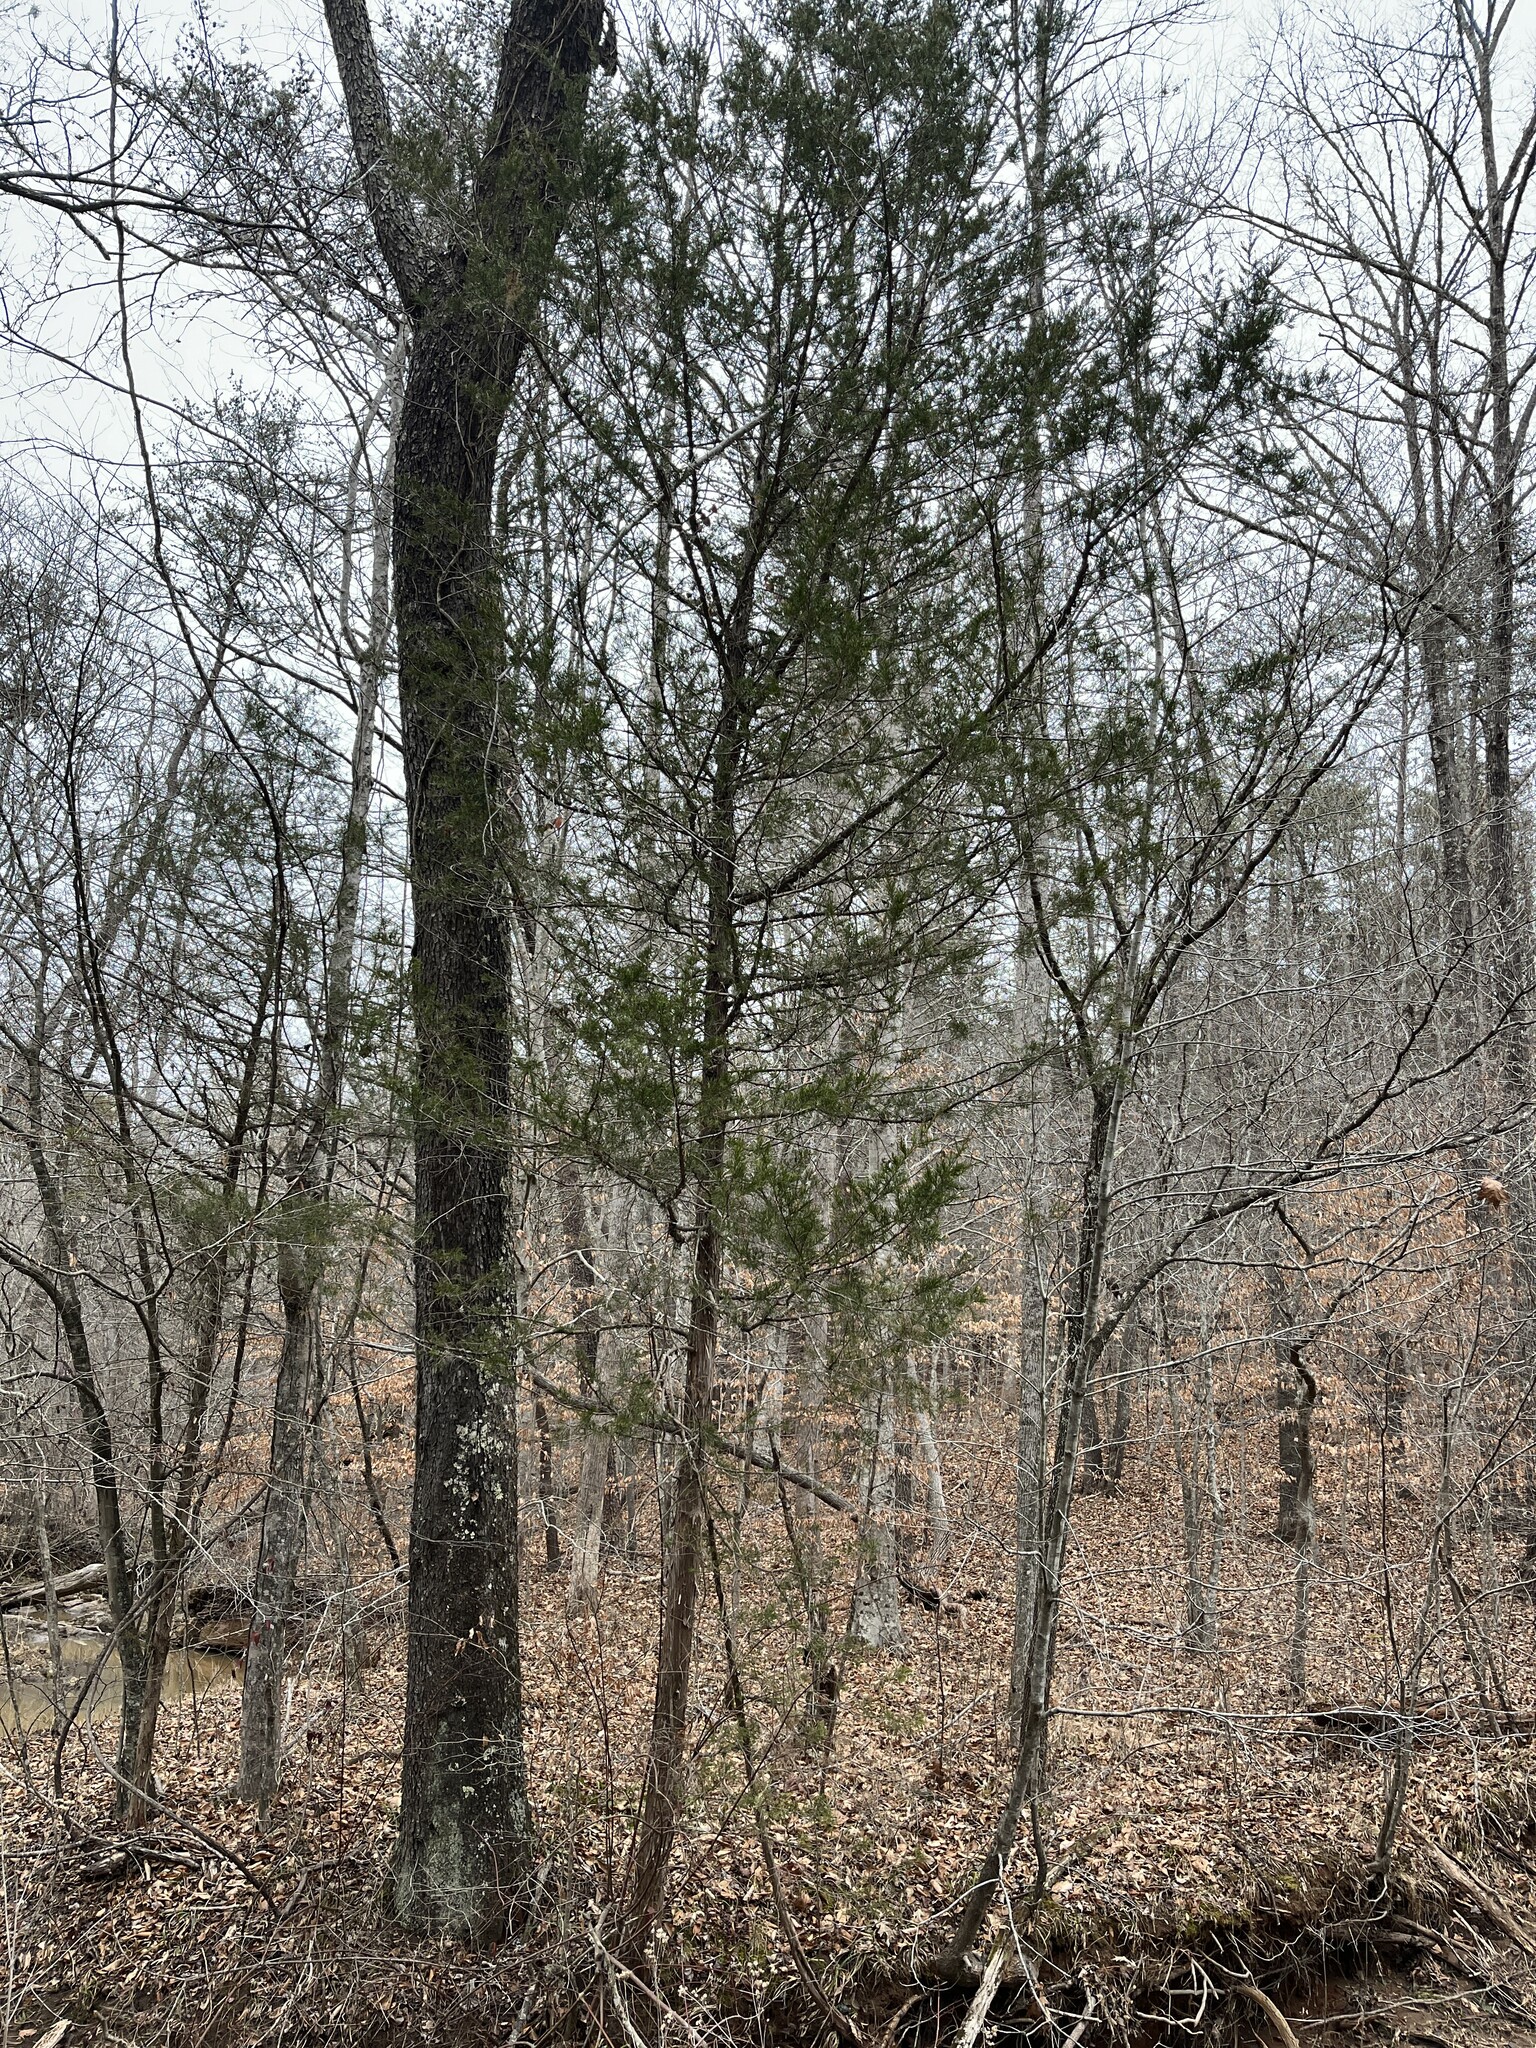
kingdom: Plantae
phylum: Tracheophyta
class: Pinopsida
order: Pinales
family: Cupressaceae
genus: Juniperus
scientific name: Juniperus virginiana
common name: Red juniper
